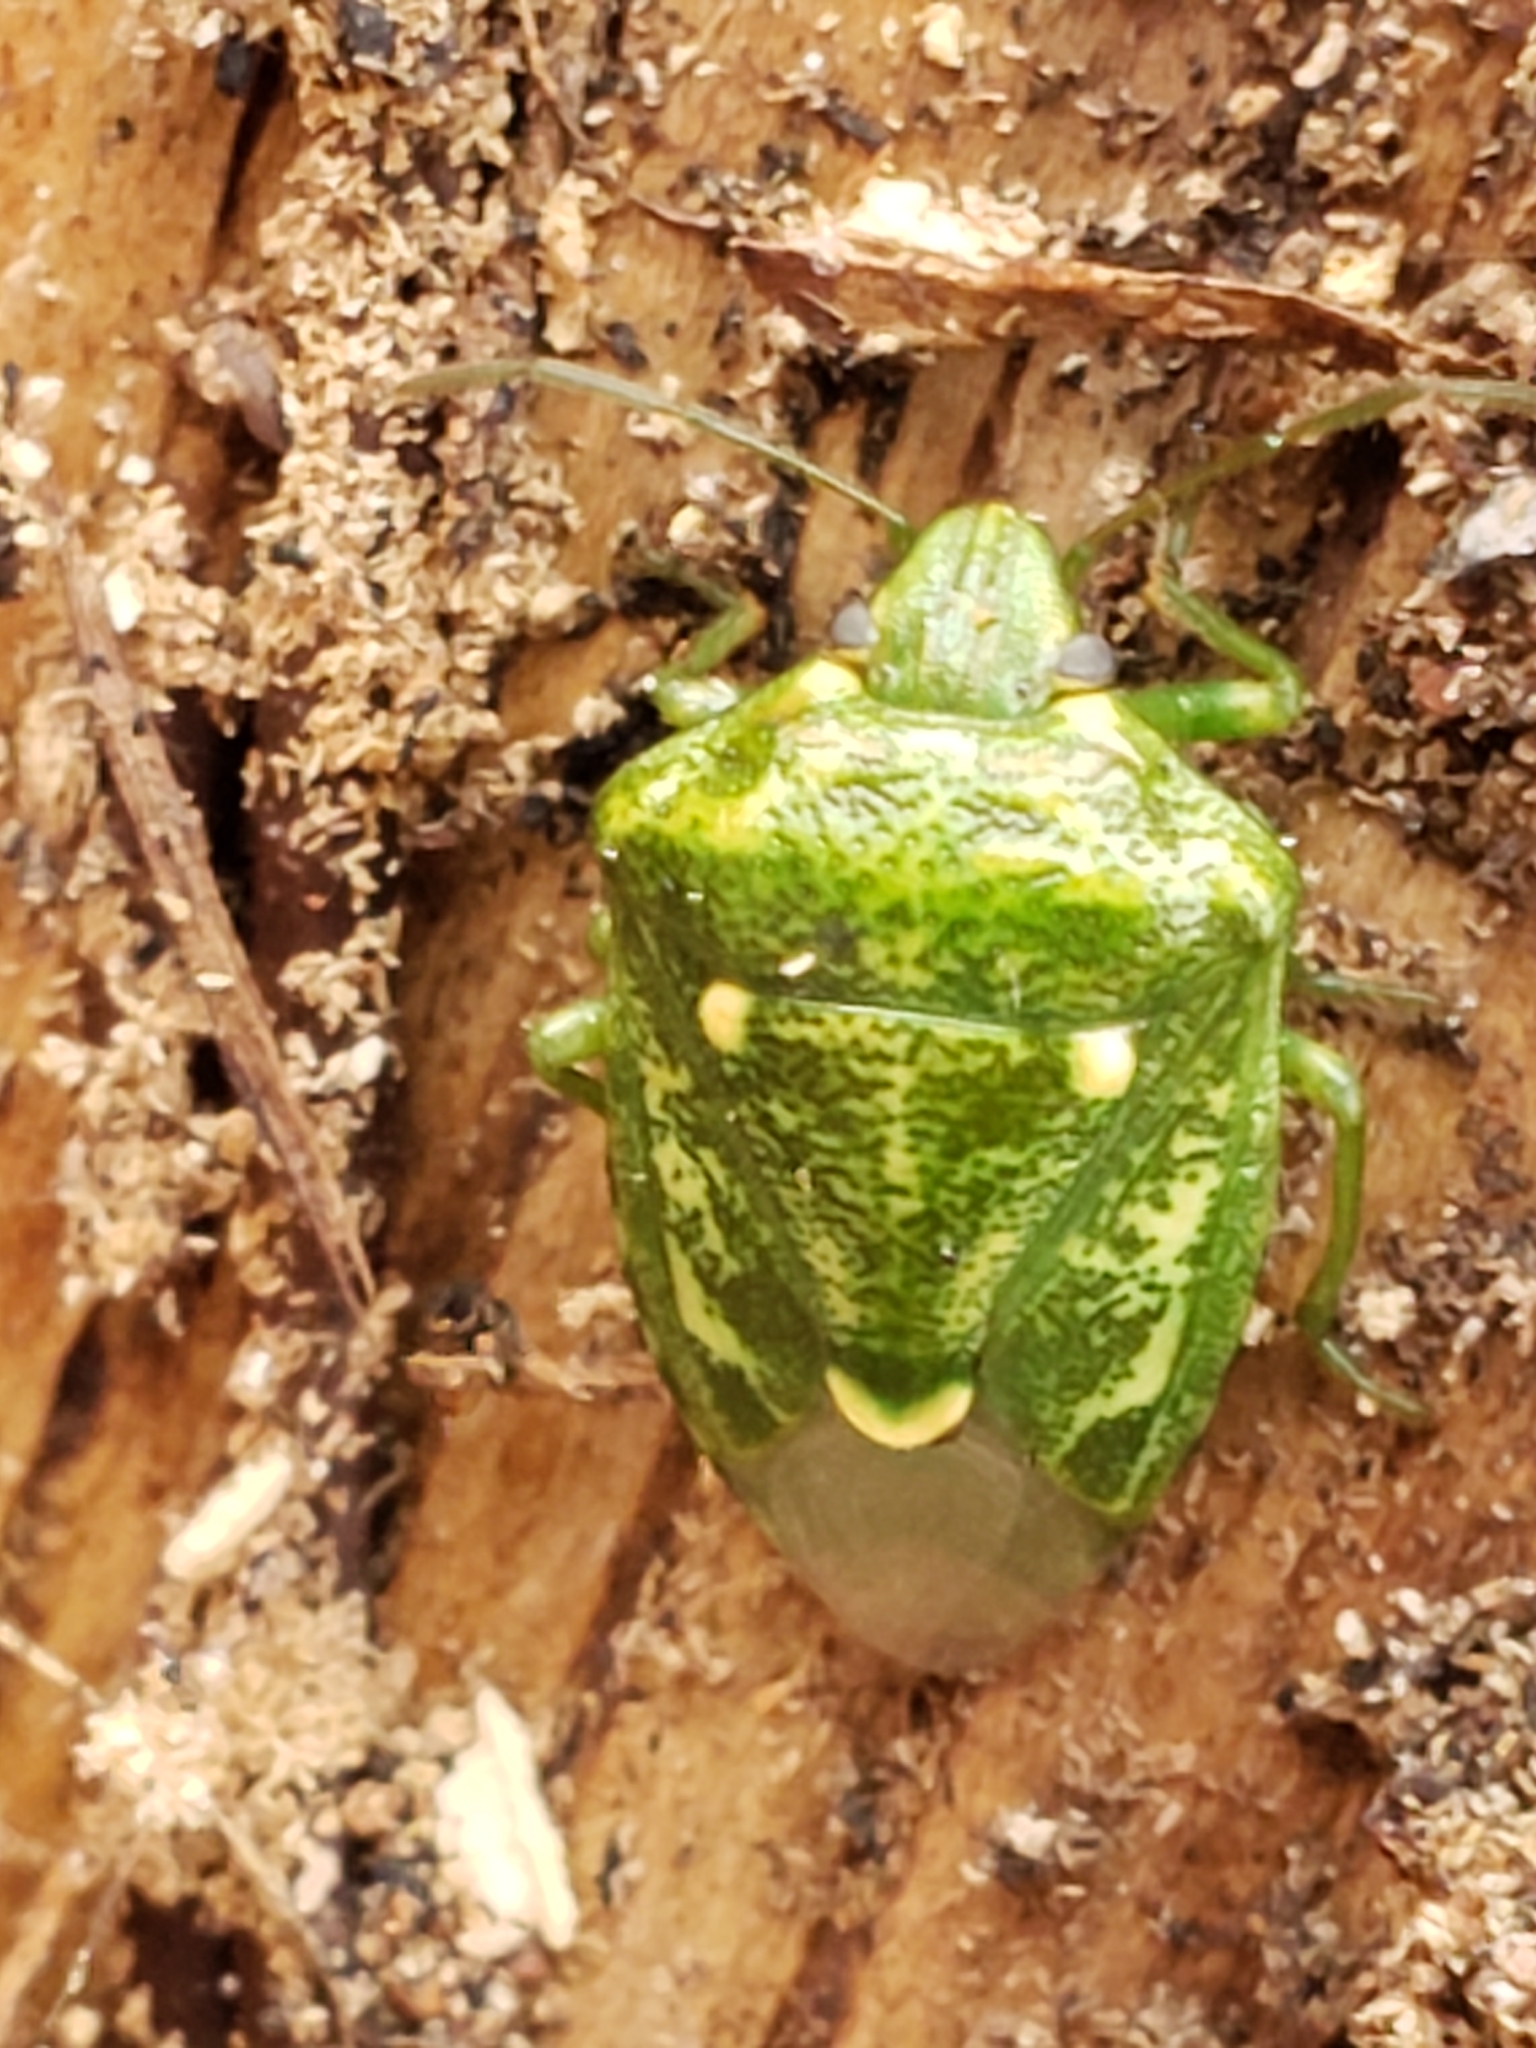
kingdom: Animalia
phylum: Arthropoda
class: Insecta
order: Hemiptera
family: Pentatomidae
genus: Banasa
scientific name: Banasa euchlora
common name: Cedar berry bug
